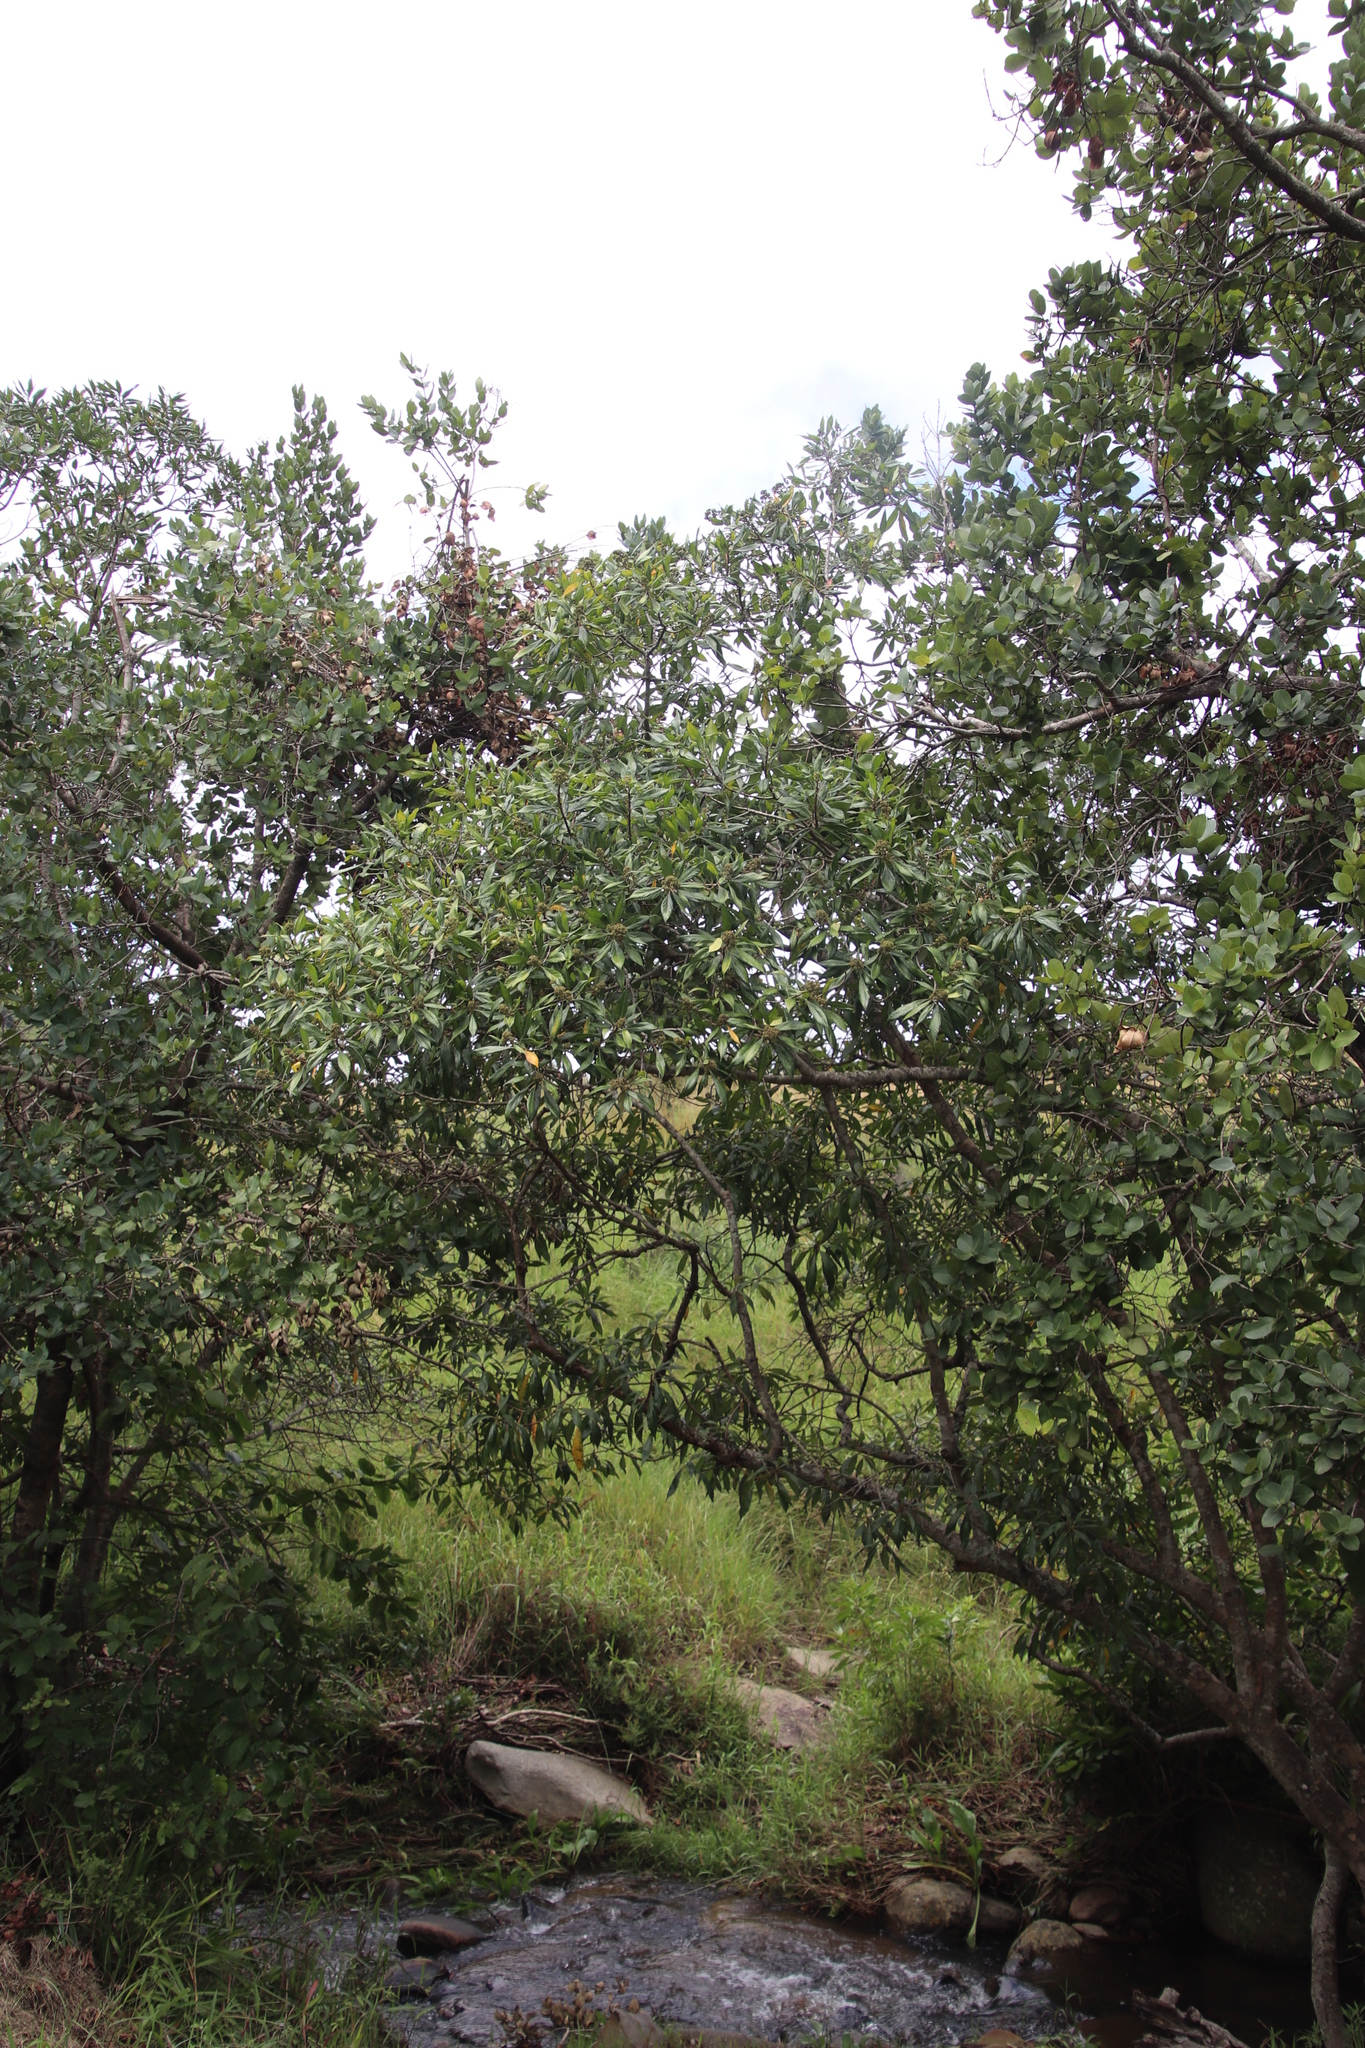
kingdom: Plantae
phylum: Tracheophyta
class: Magnoliopsida
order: Myrtales
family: Myrtaceae
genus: Heteropyxis
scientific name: Heteropyxis canescens
